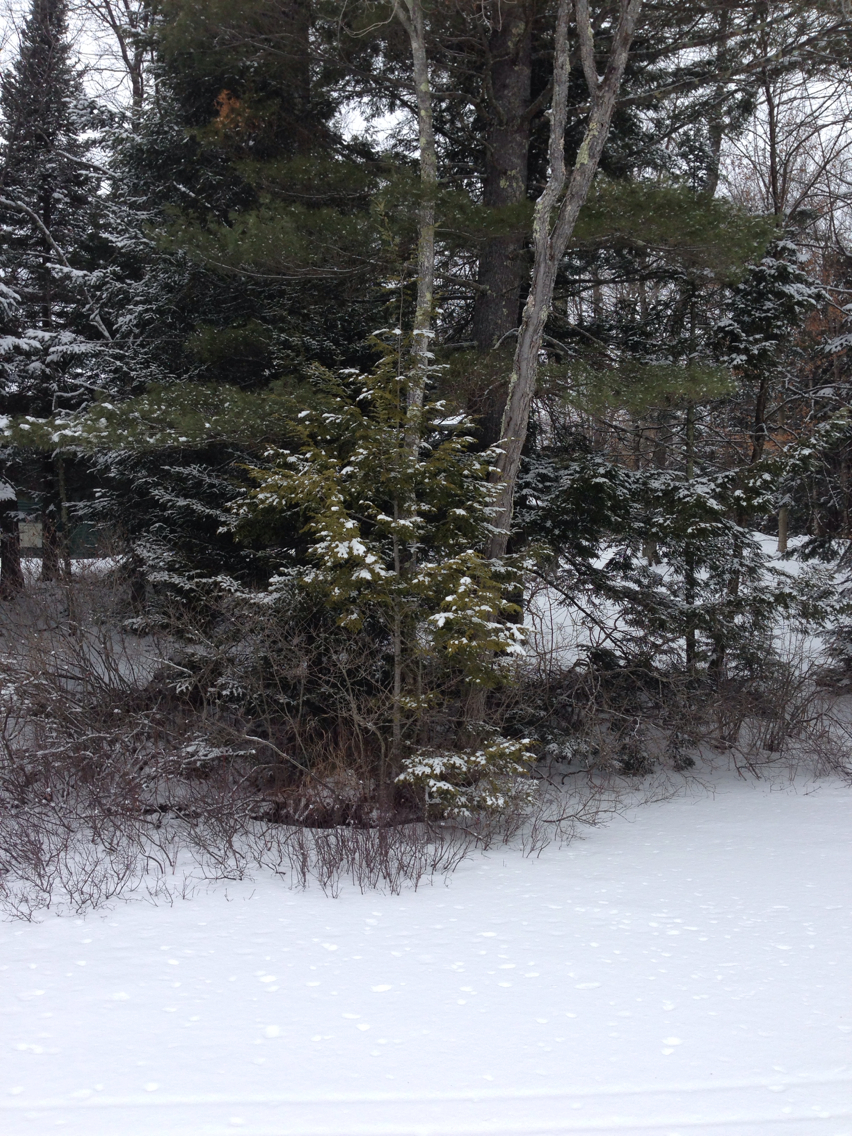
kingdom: Plantae
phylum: Tracheophyta
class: Pinopsida
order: Pinales
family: Cupressaceae
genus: Thuja
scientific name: Thuja occidentalis
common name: Northern white-cedar
